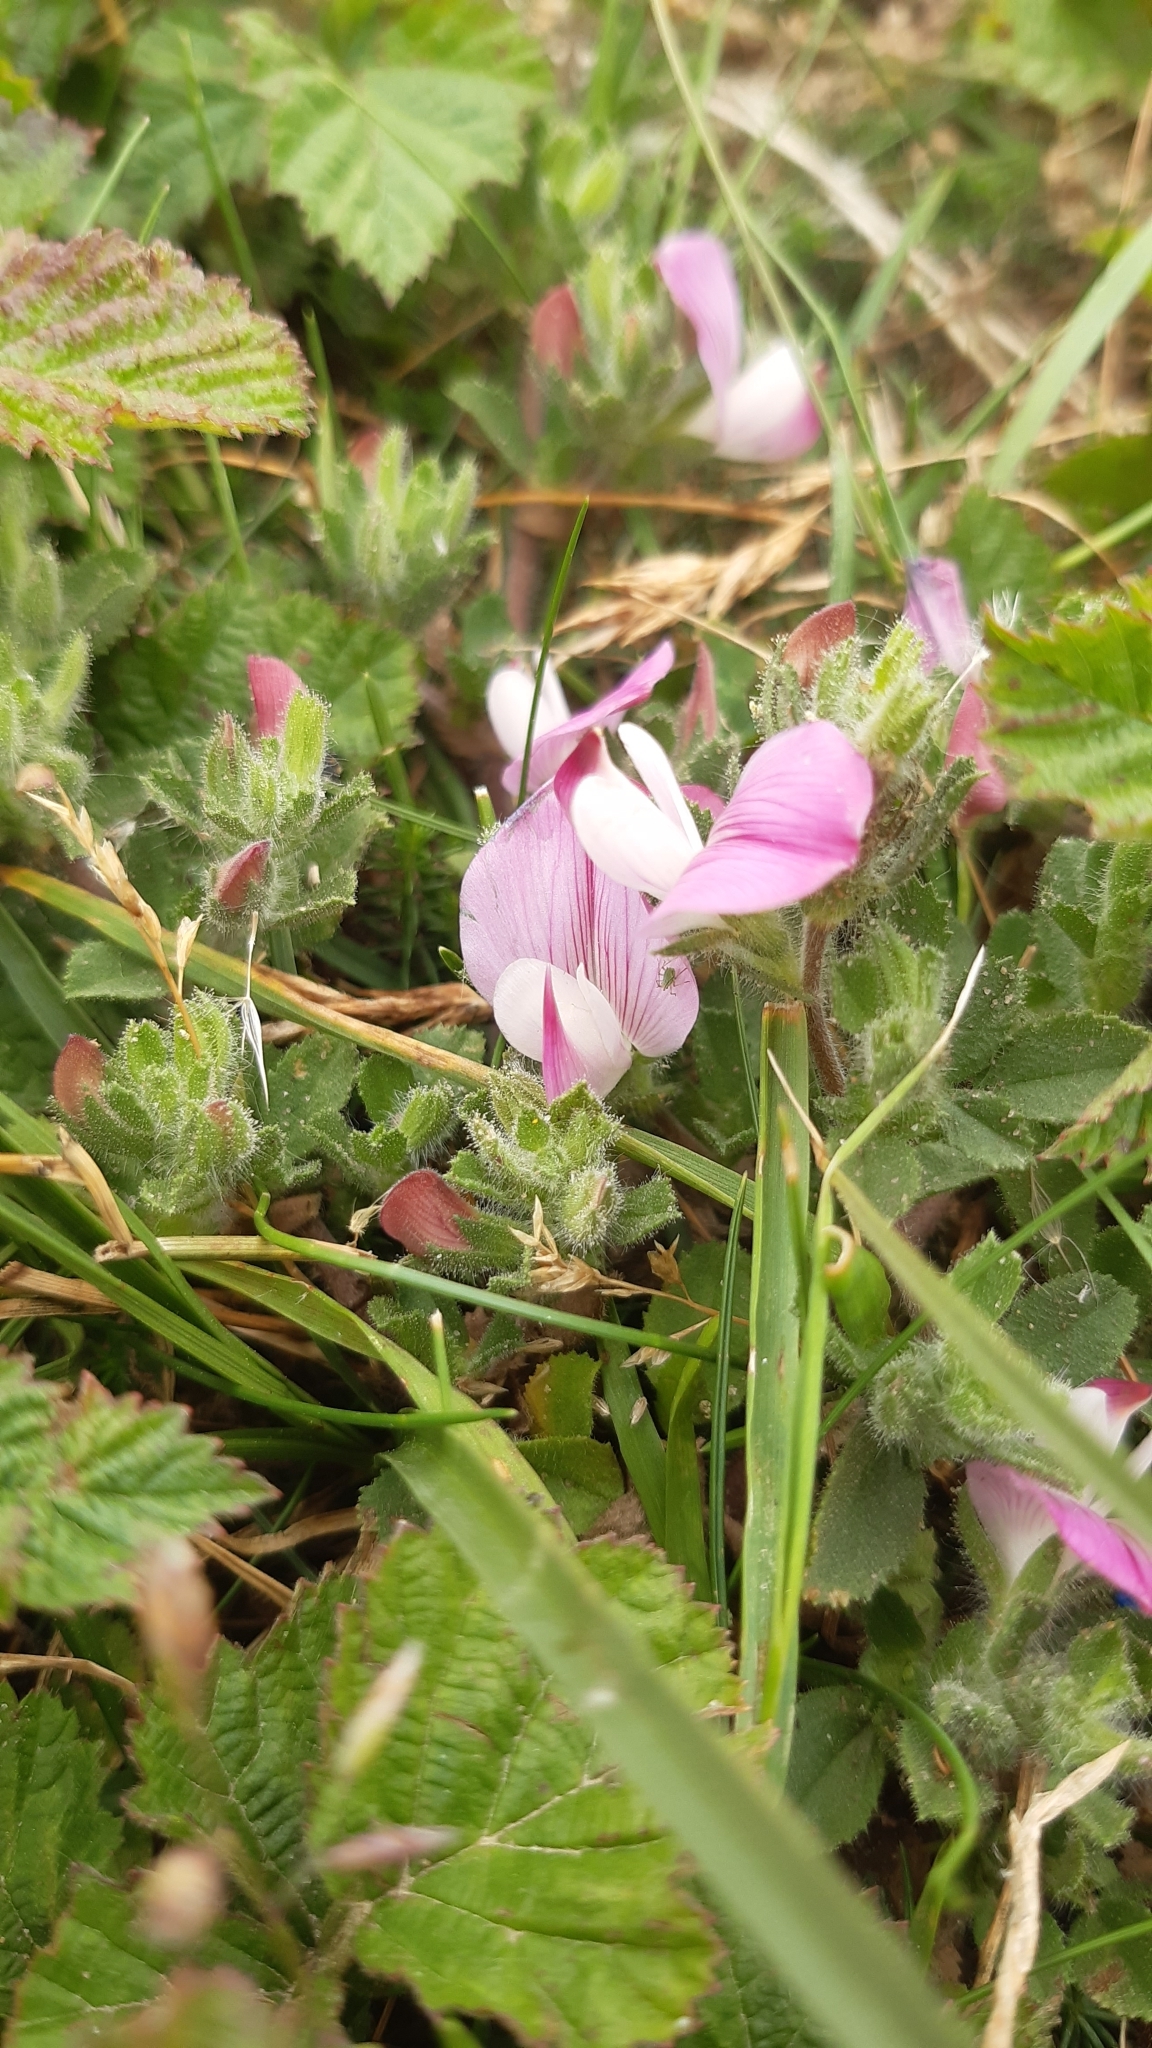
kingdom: Plantae
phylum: Tracheophyta
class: Magnoliopsida
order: Fabales
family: Fabaceae
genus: Ononis
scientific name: Ononis spinosa
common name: Spiny restharrow
